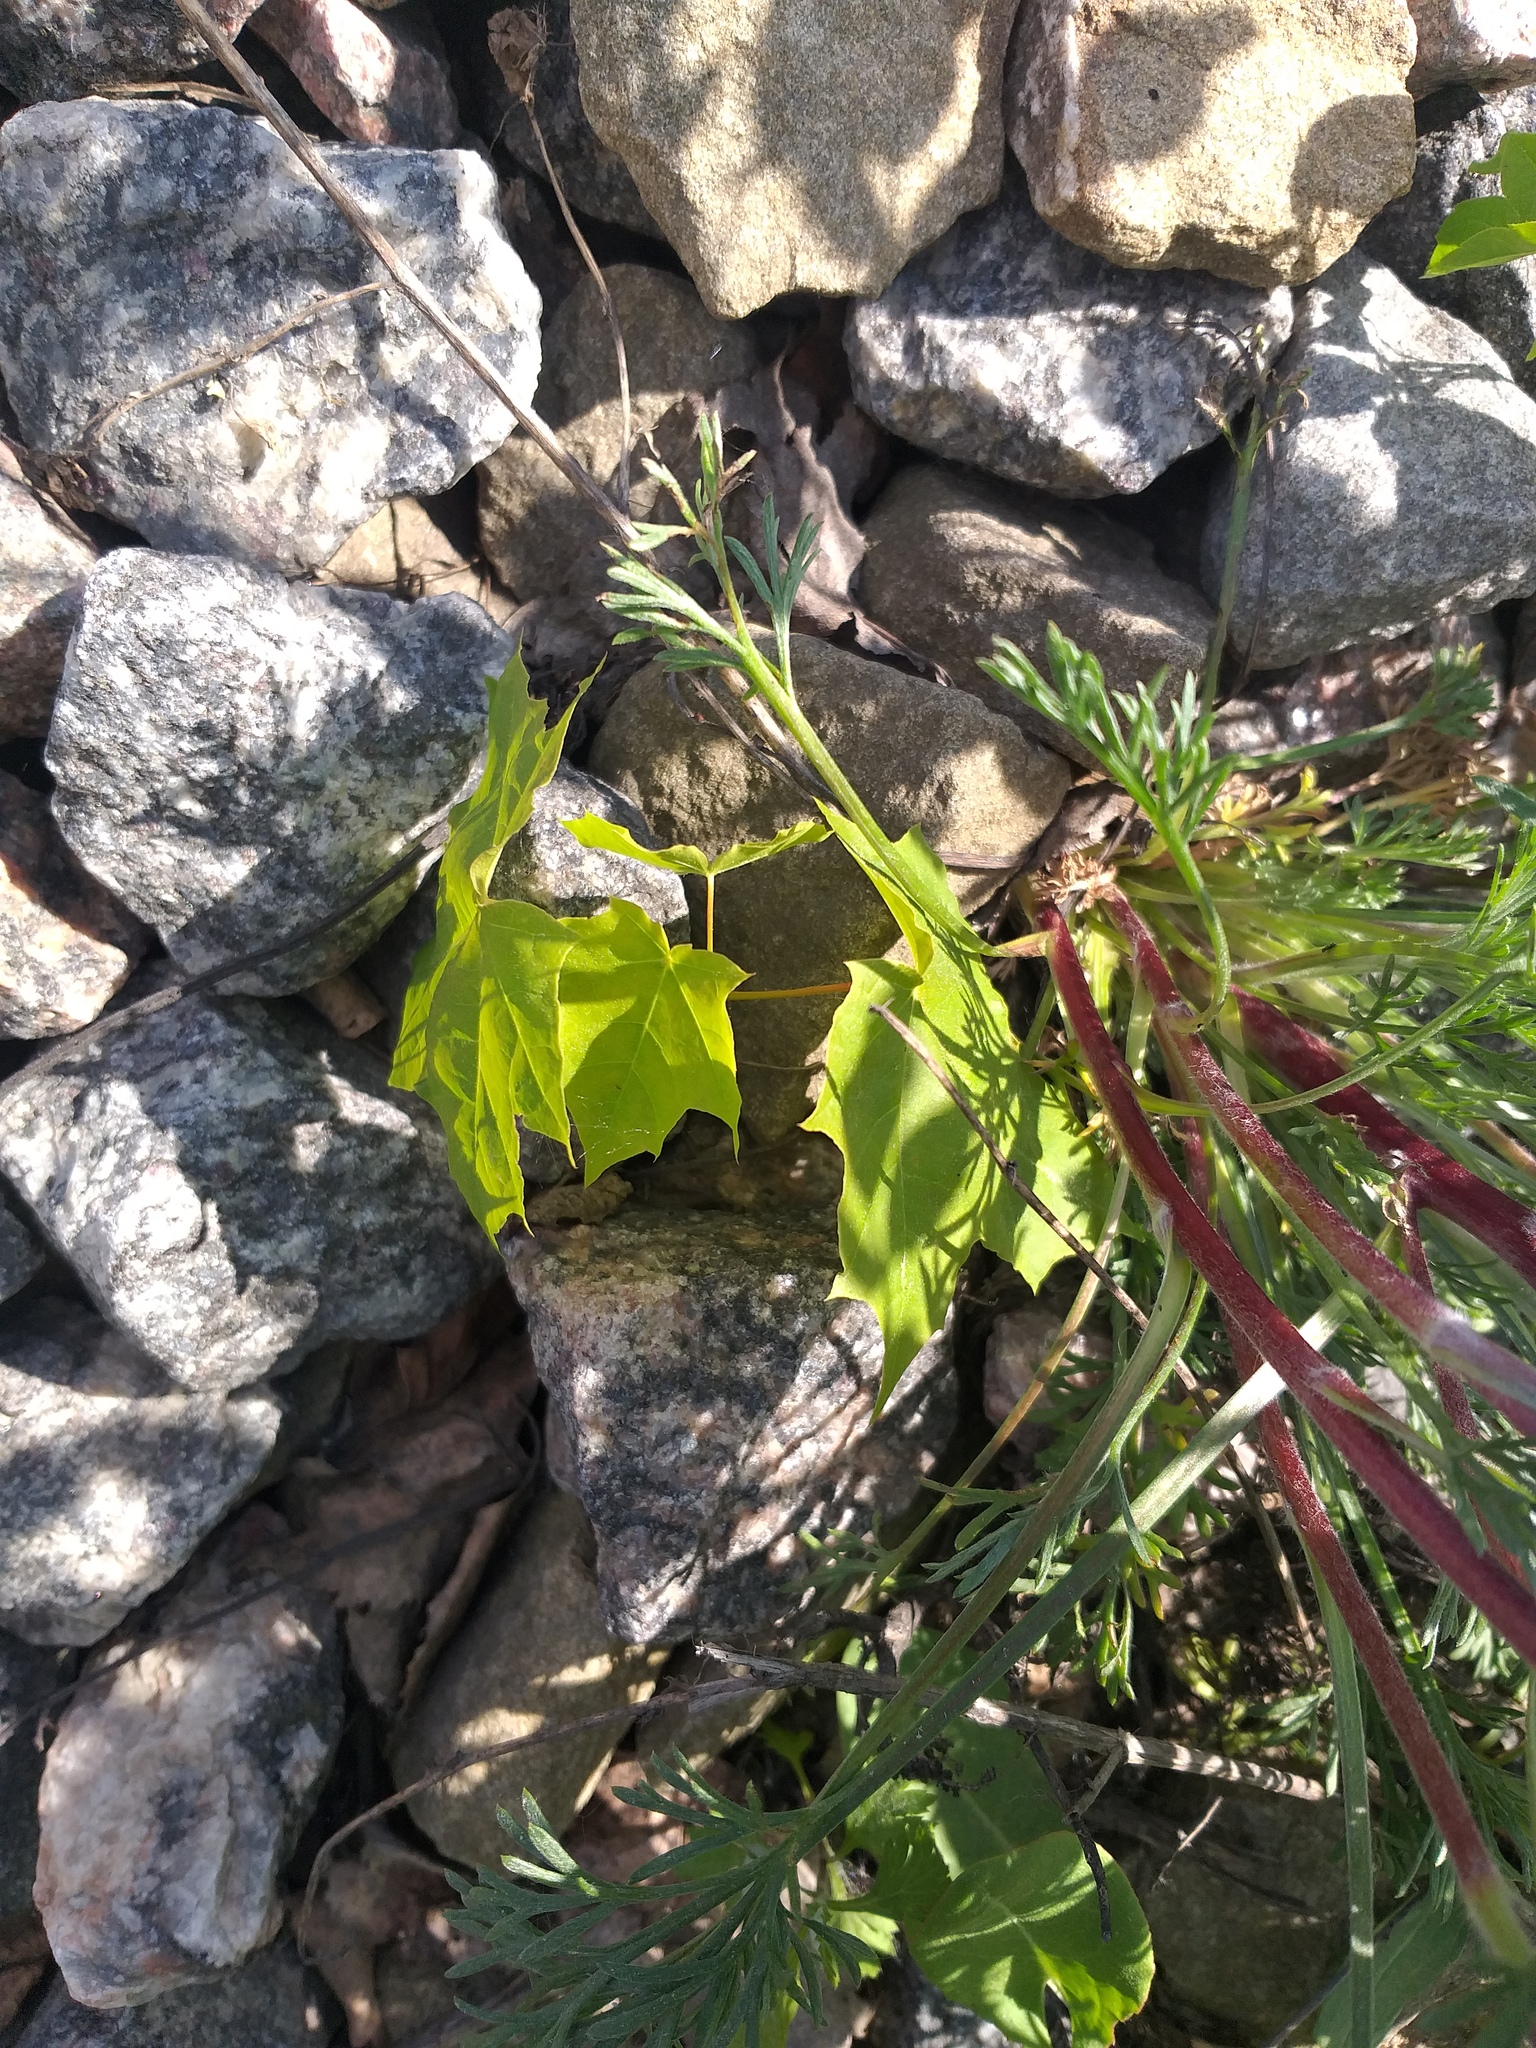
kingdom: Plantae
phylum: Tracheophyta
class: Magnoliopsida
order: Sapindales
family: Sapindaceae
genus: Acer
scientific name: Acer platanoides
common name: Norway maple
